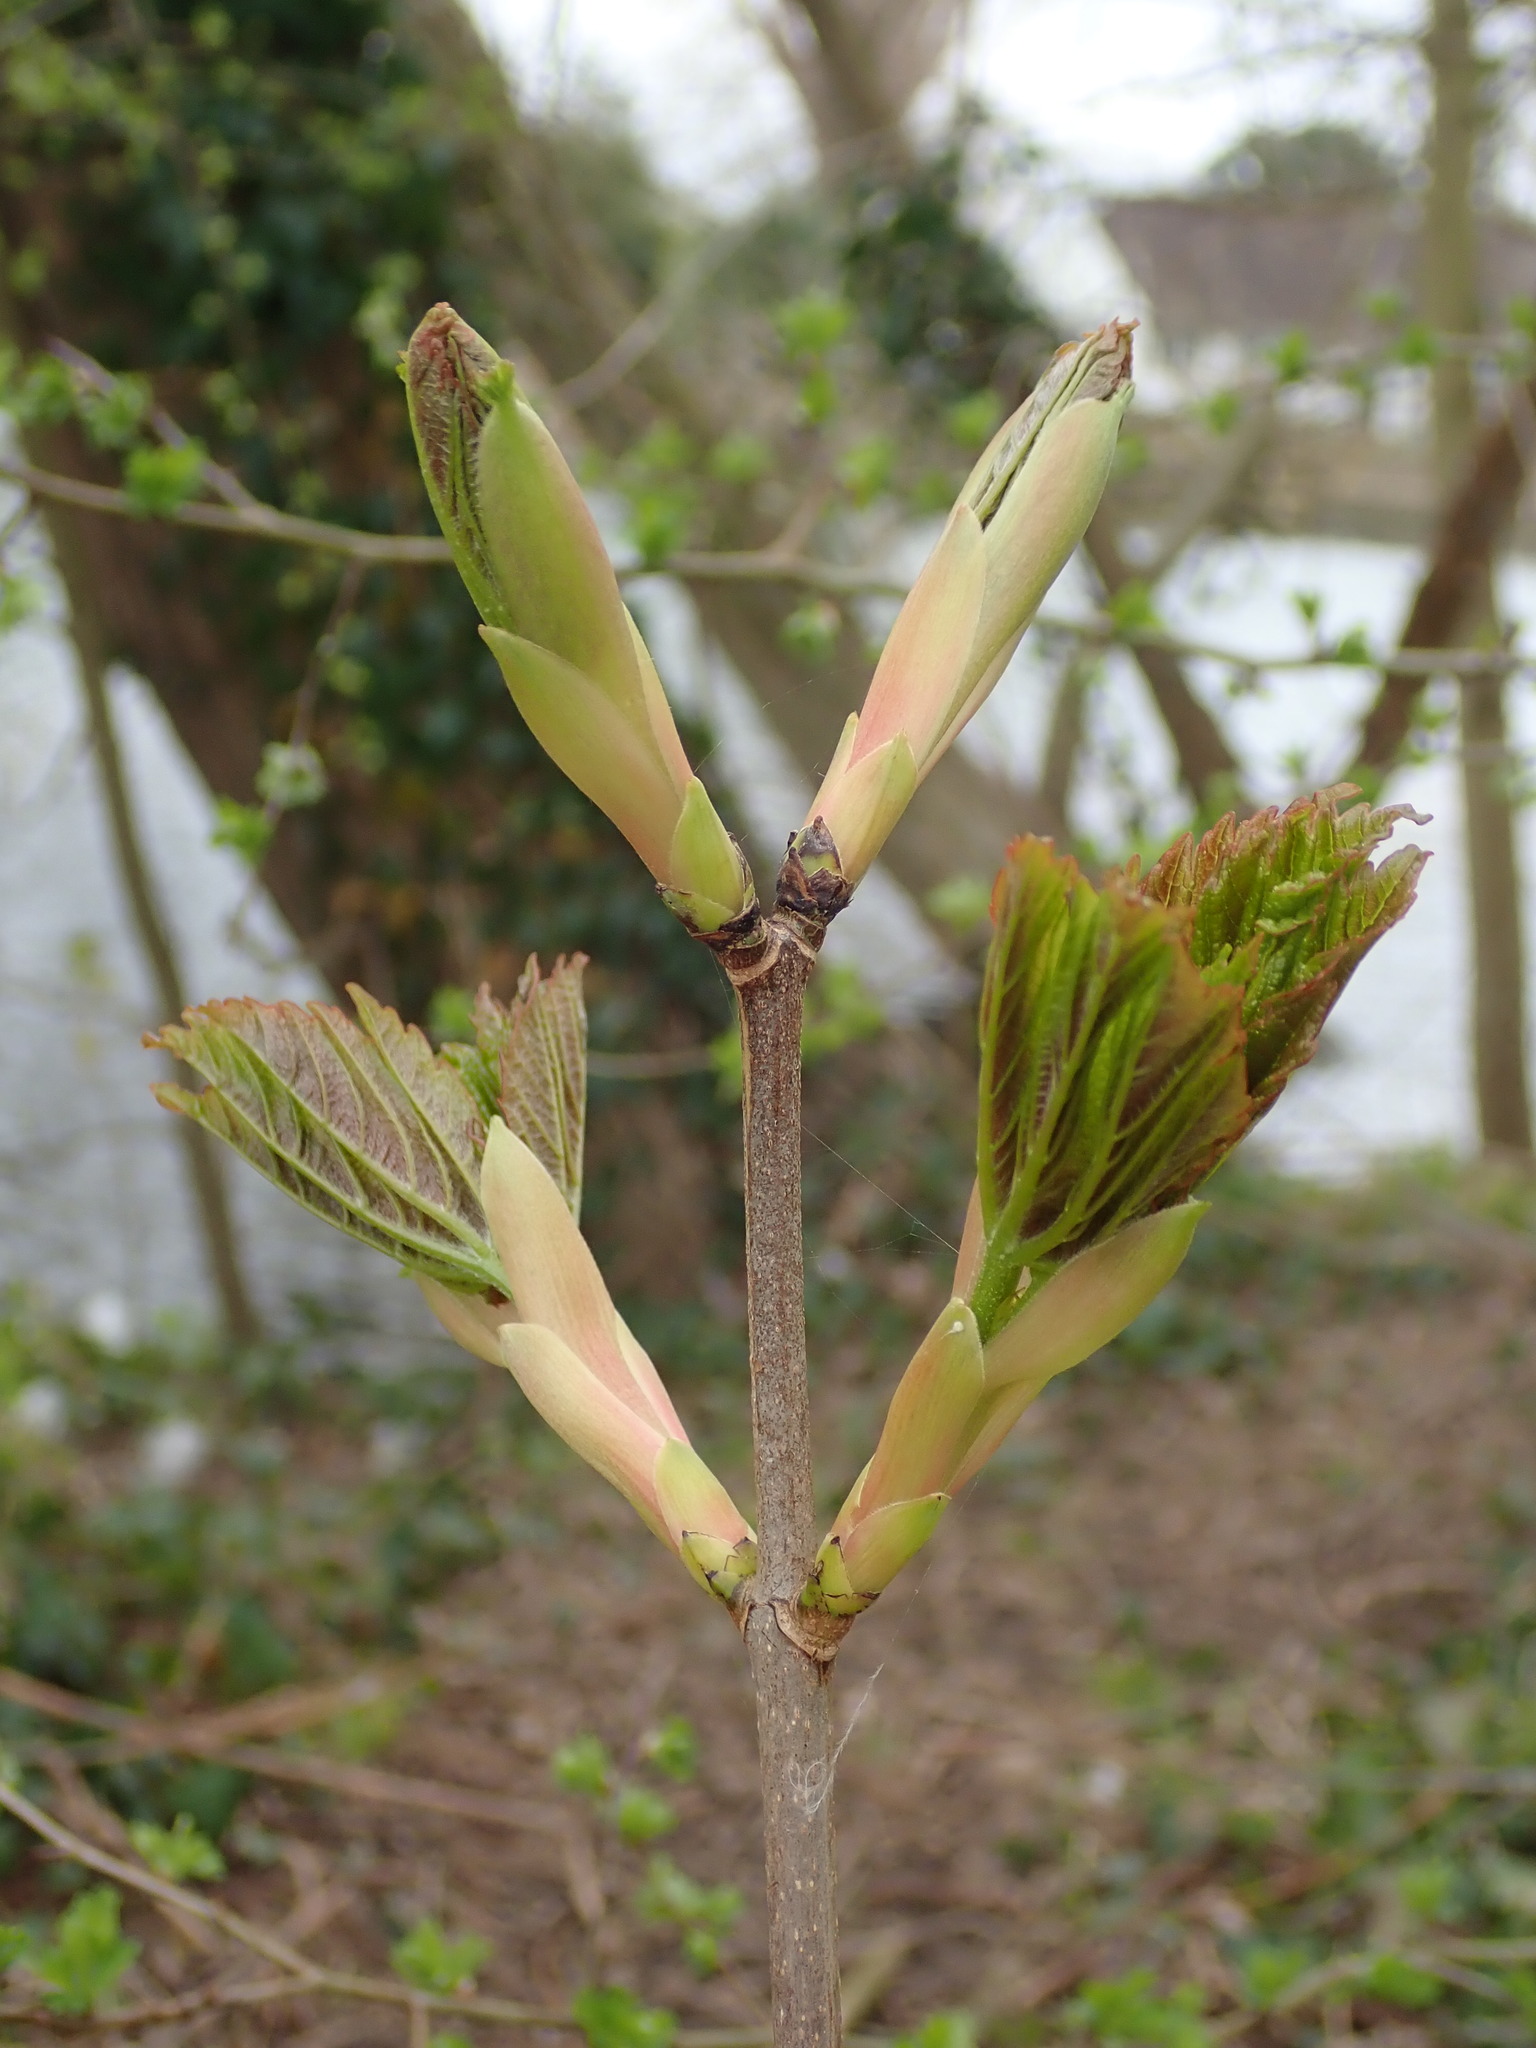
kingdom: Plantae
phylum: Tracheophyta
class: Magnoliopsida
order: Sapindales
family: Sapindaceae
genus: Acer
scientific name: Acer pseudoplatanus
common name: Sycamore
